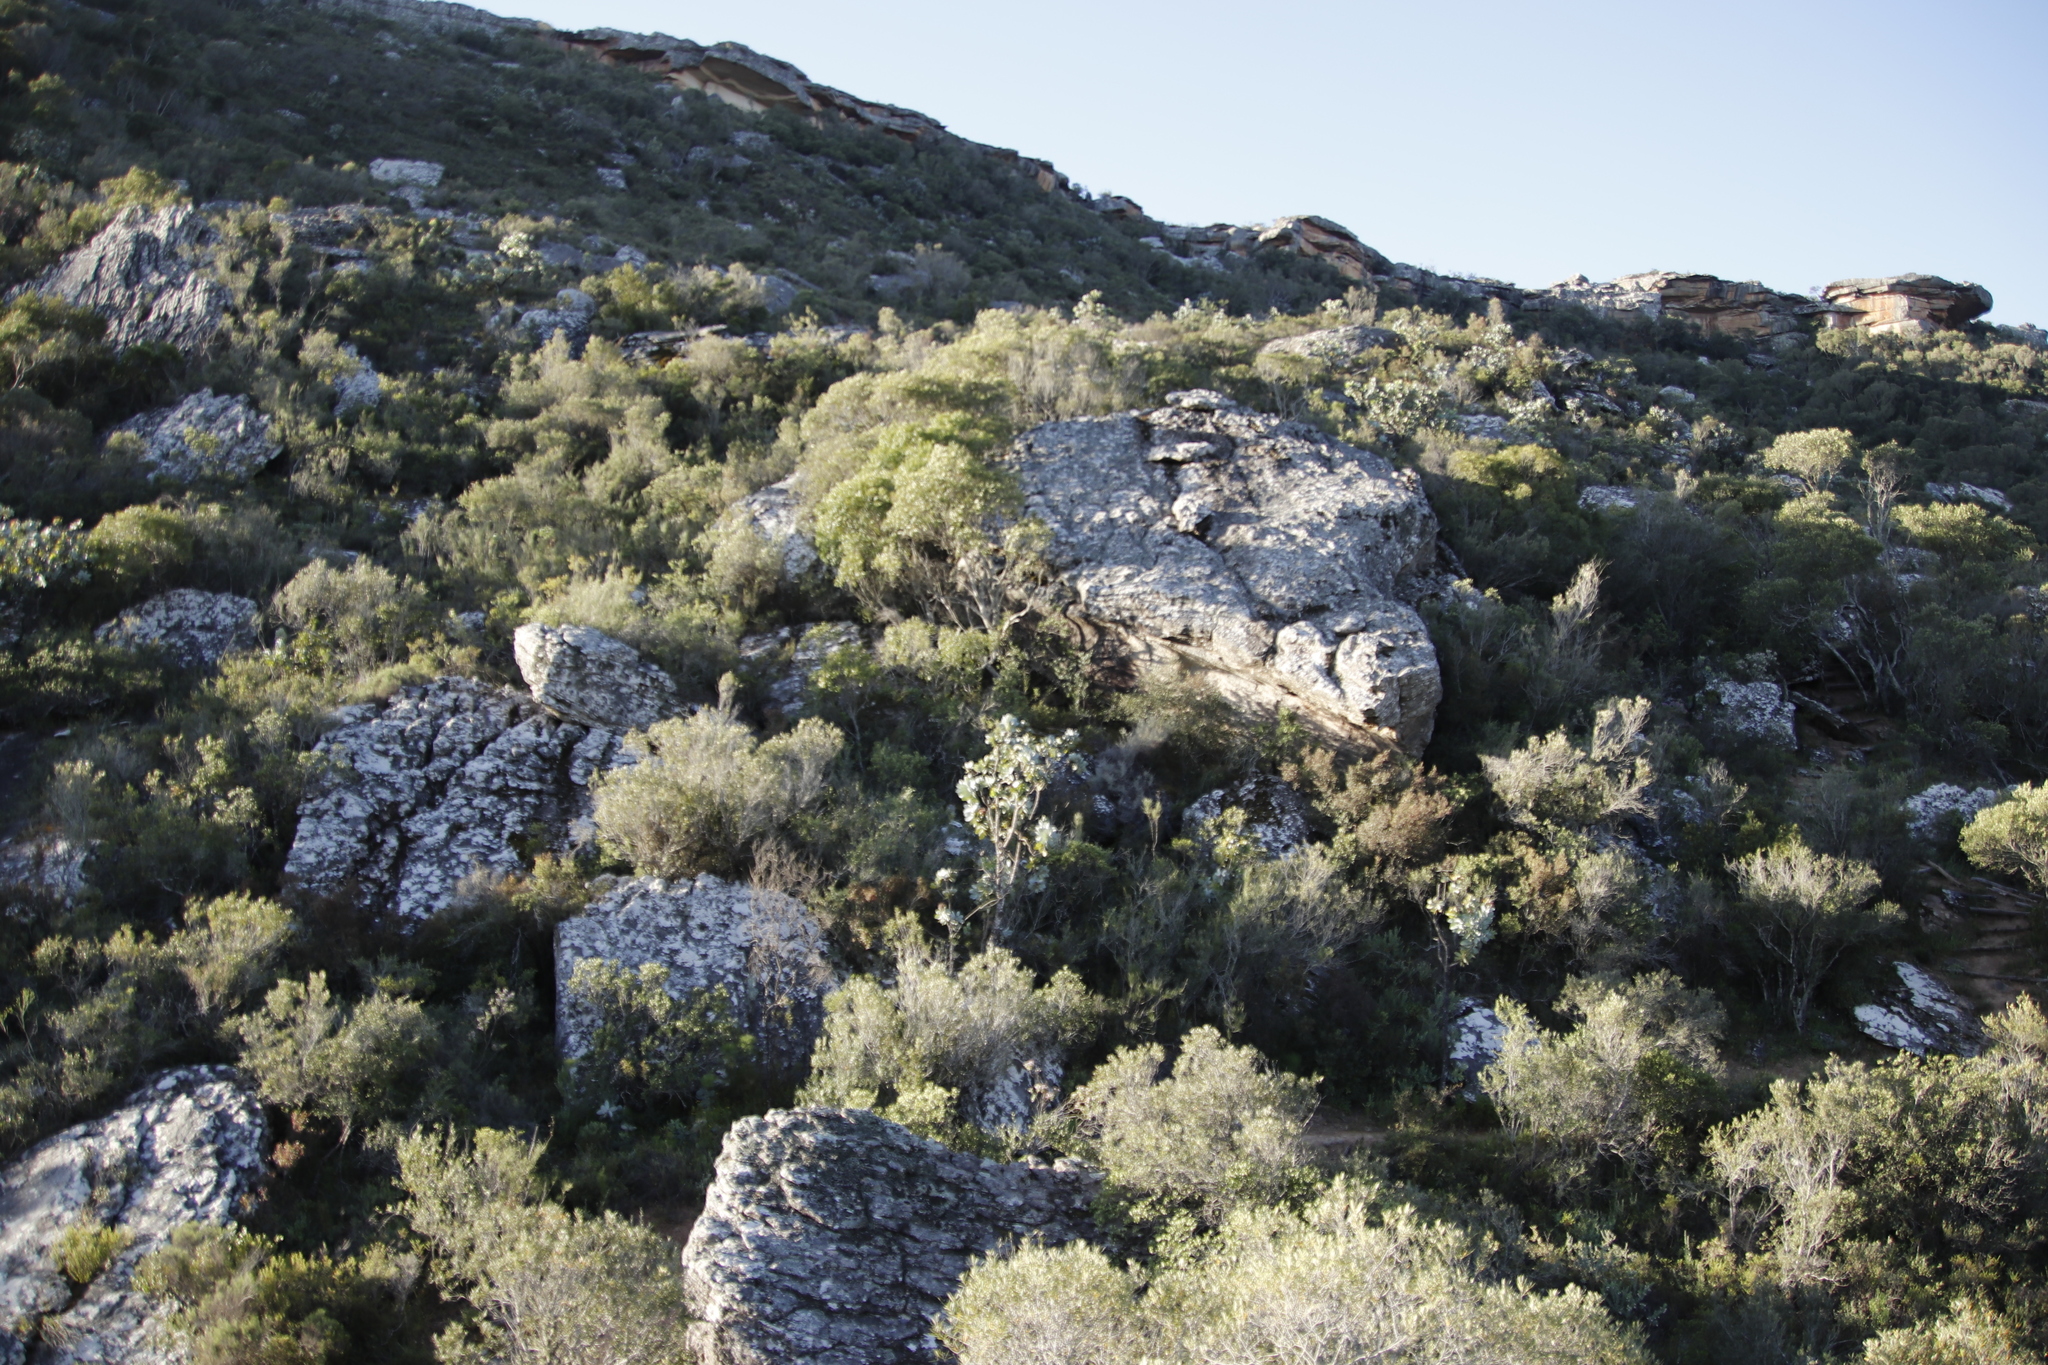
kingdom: Plantae
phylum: Tracheophyta
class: Magnoliopsida
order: Lamiales
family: Oleaceae
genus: Olea
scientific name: Olea europaea
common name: Olive
